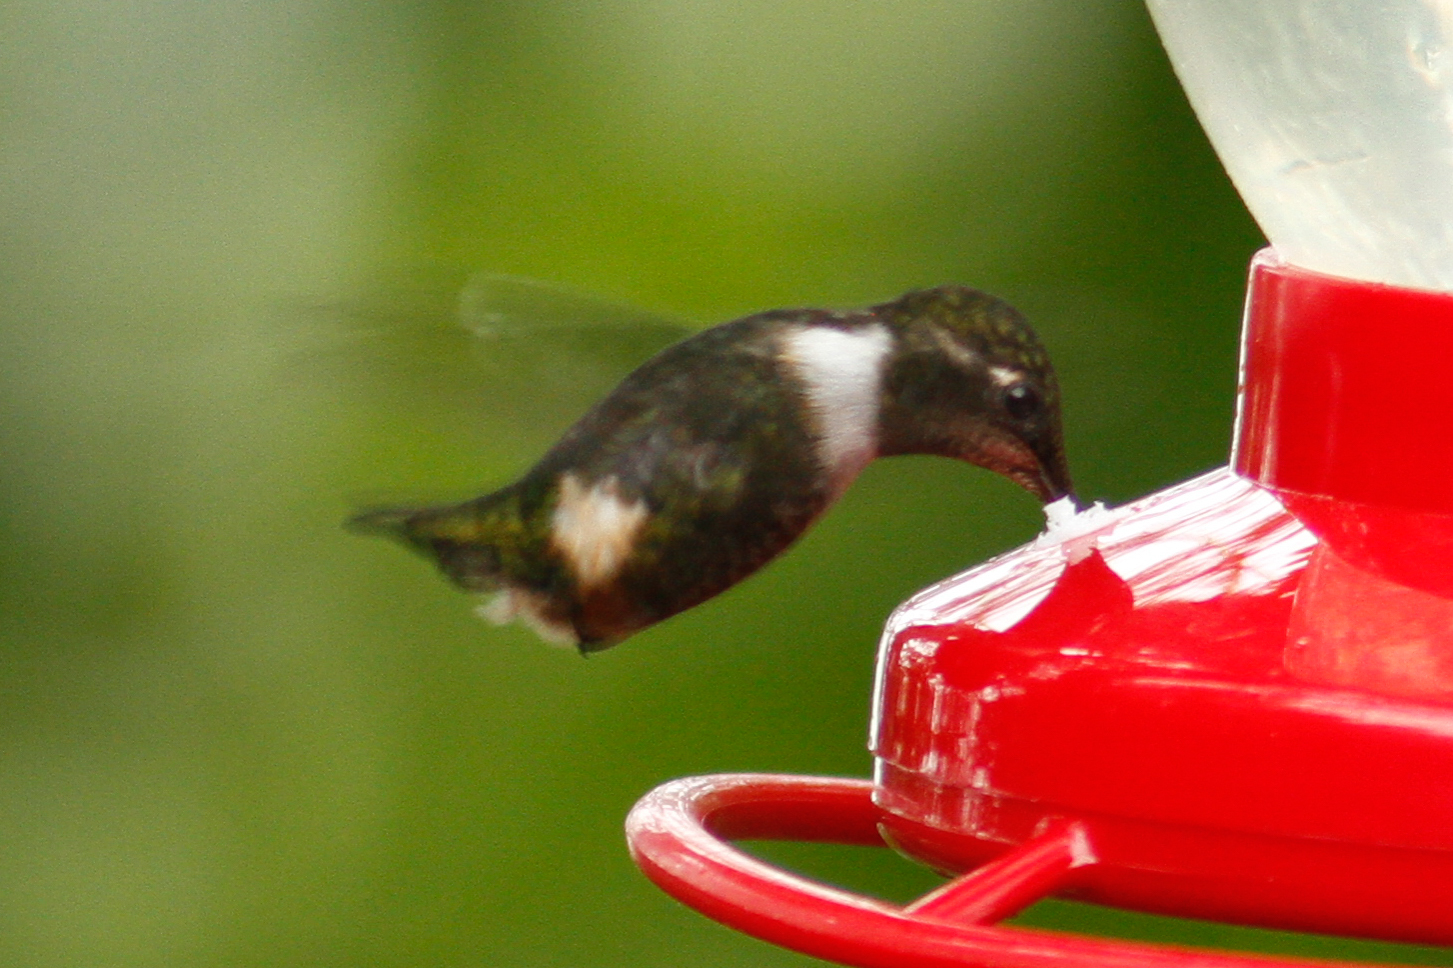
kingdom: Animalia
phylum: Chordata
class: Aves
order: Apodiformes
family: Trochilidae
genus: Calliphlox
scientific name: Calliphlox mitchellii
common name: Purple-throated woodstar
